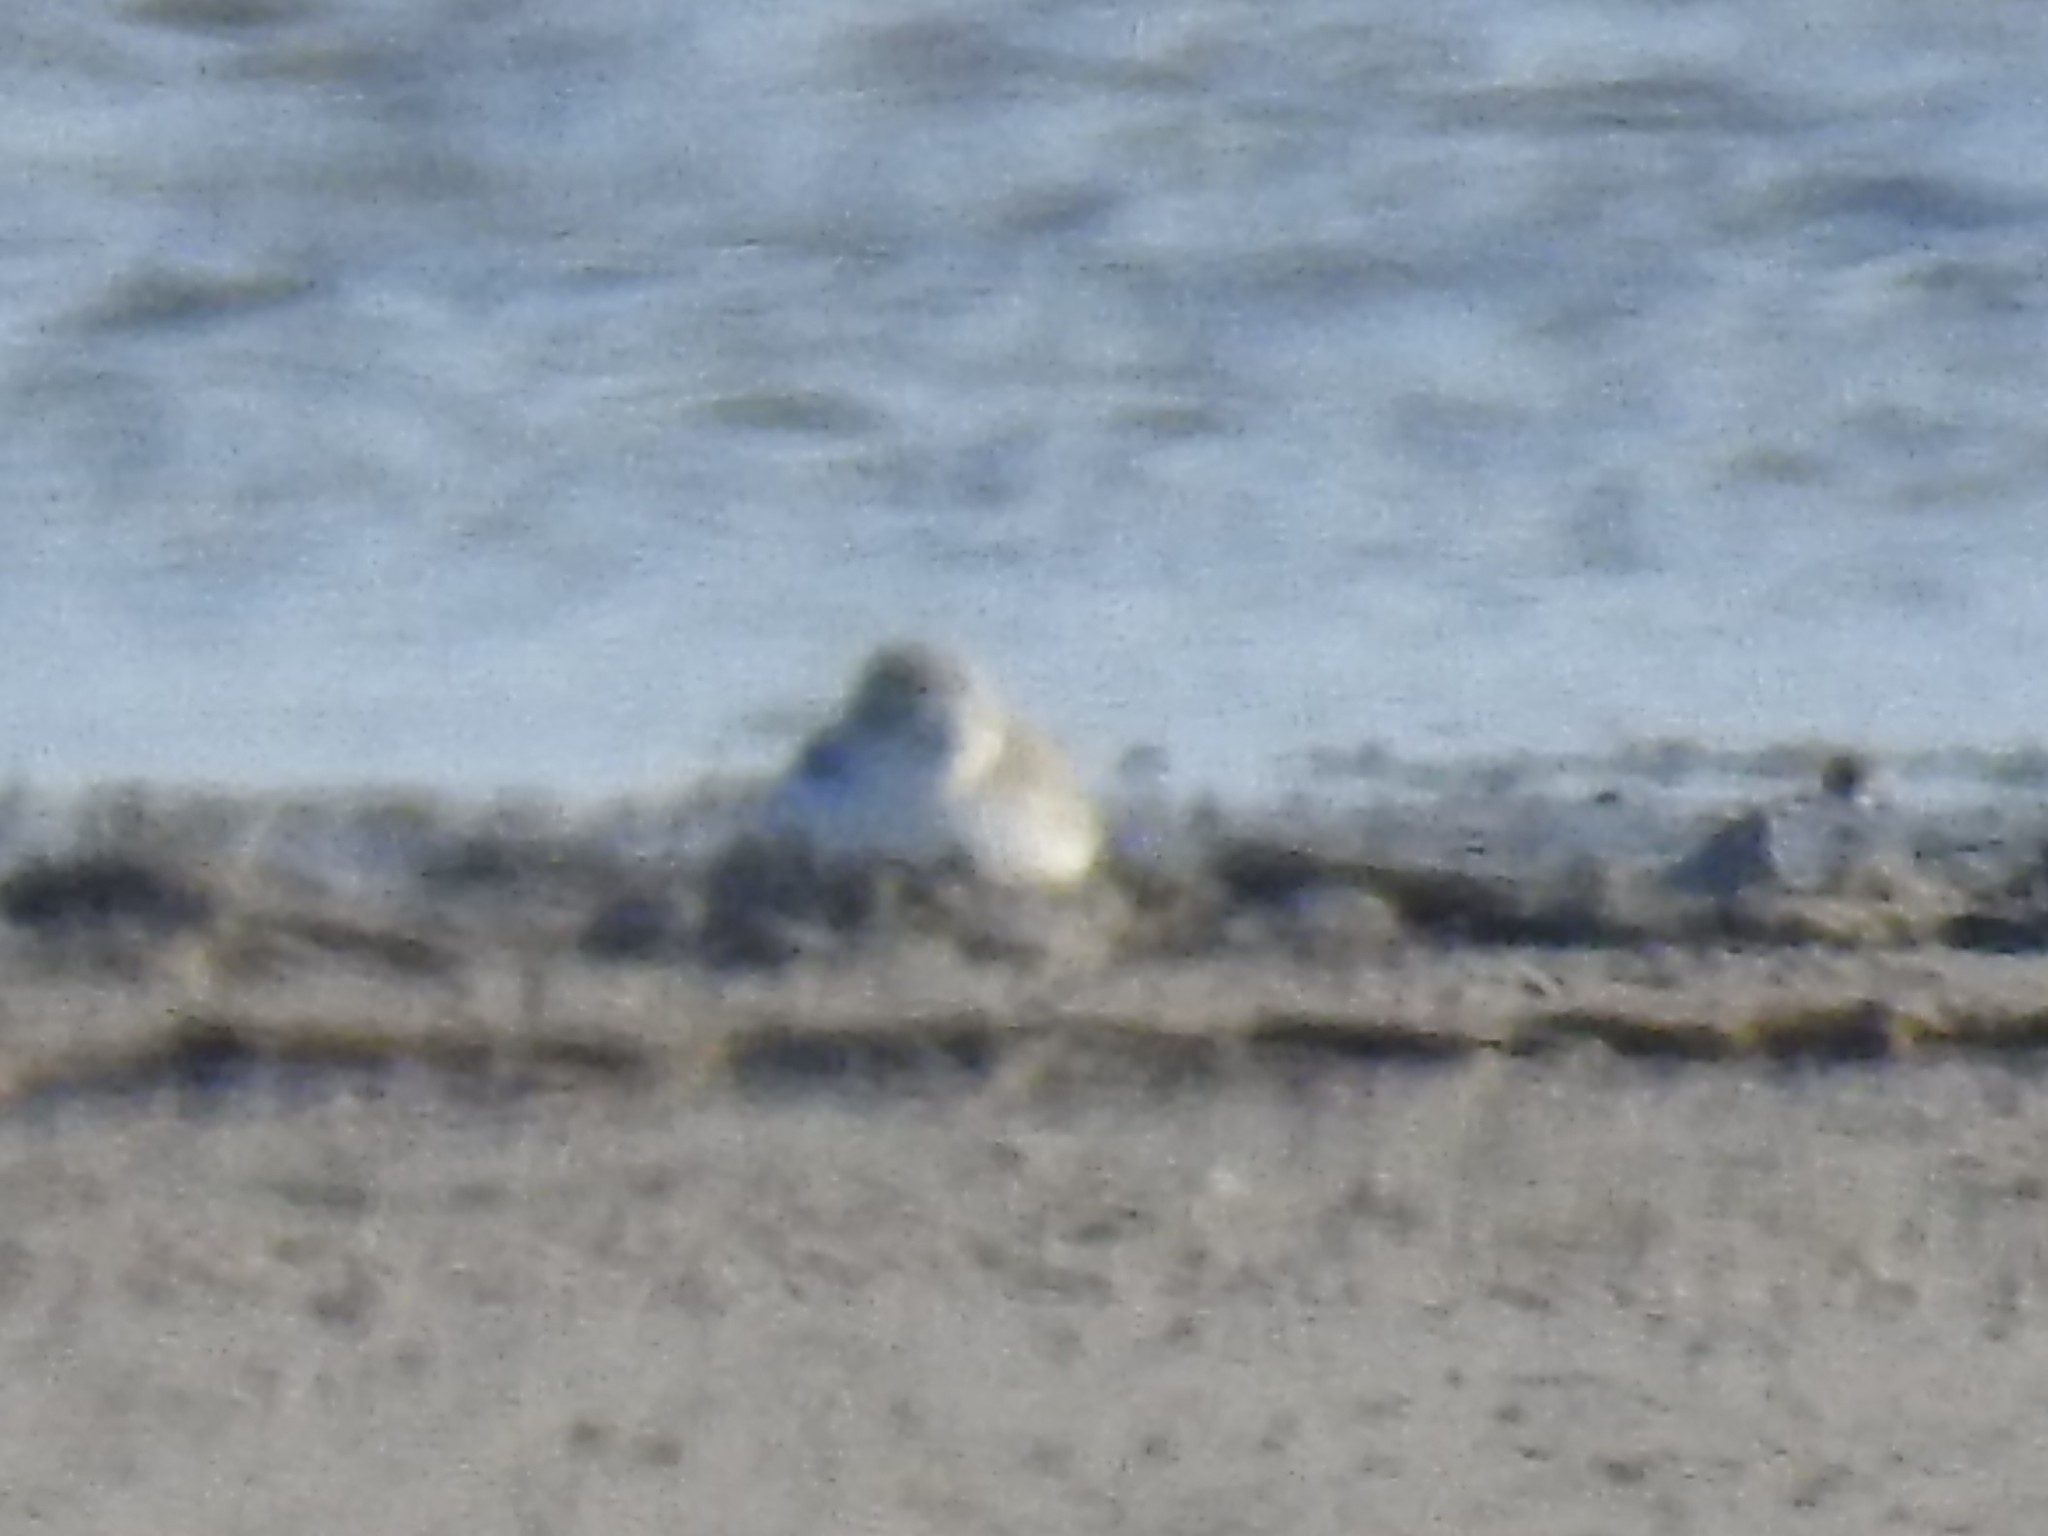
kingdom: Animalia
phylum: Chordata
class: Aves
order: Charadriiformes
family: Charadriidae
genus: Anarhynchus
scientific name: Anarhynchus
